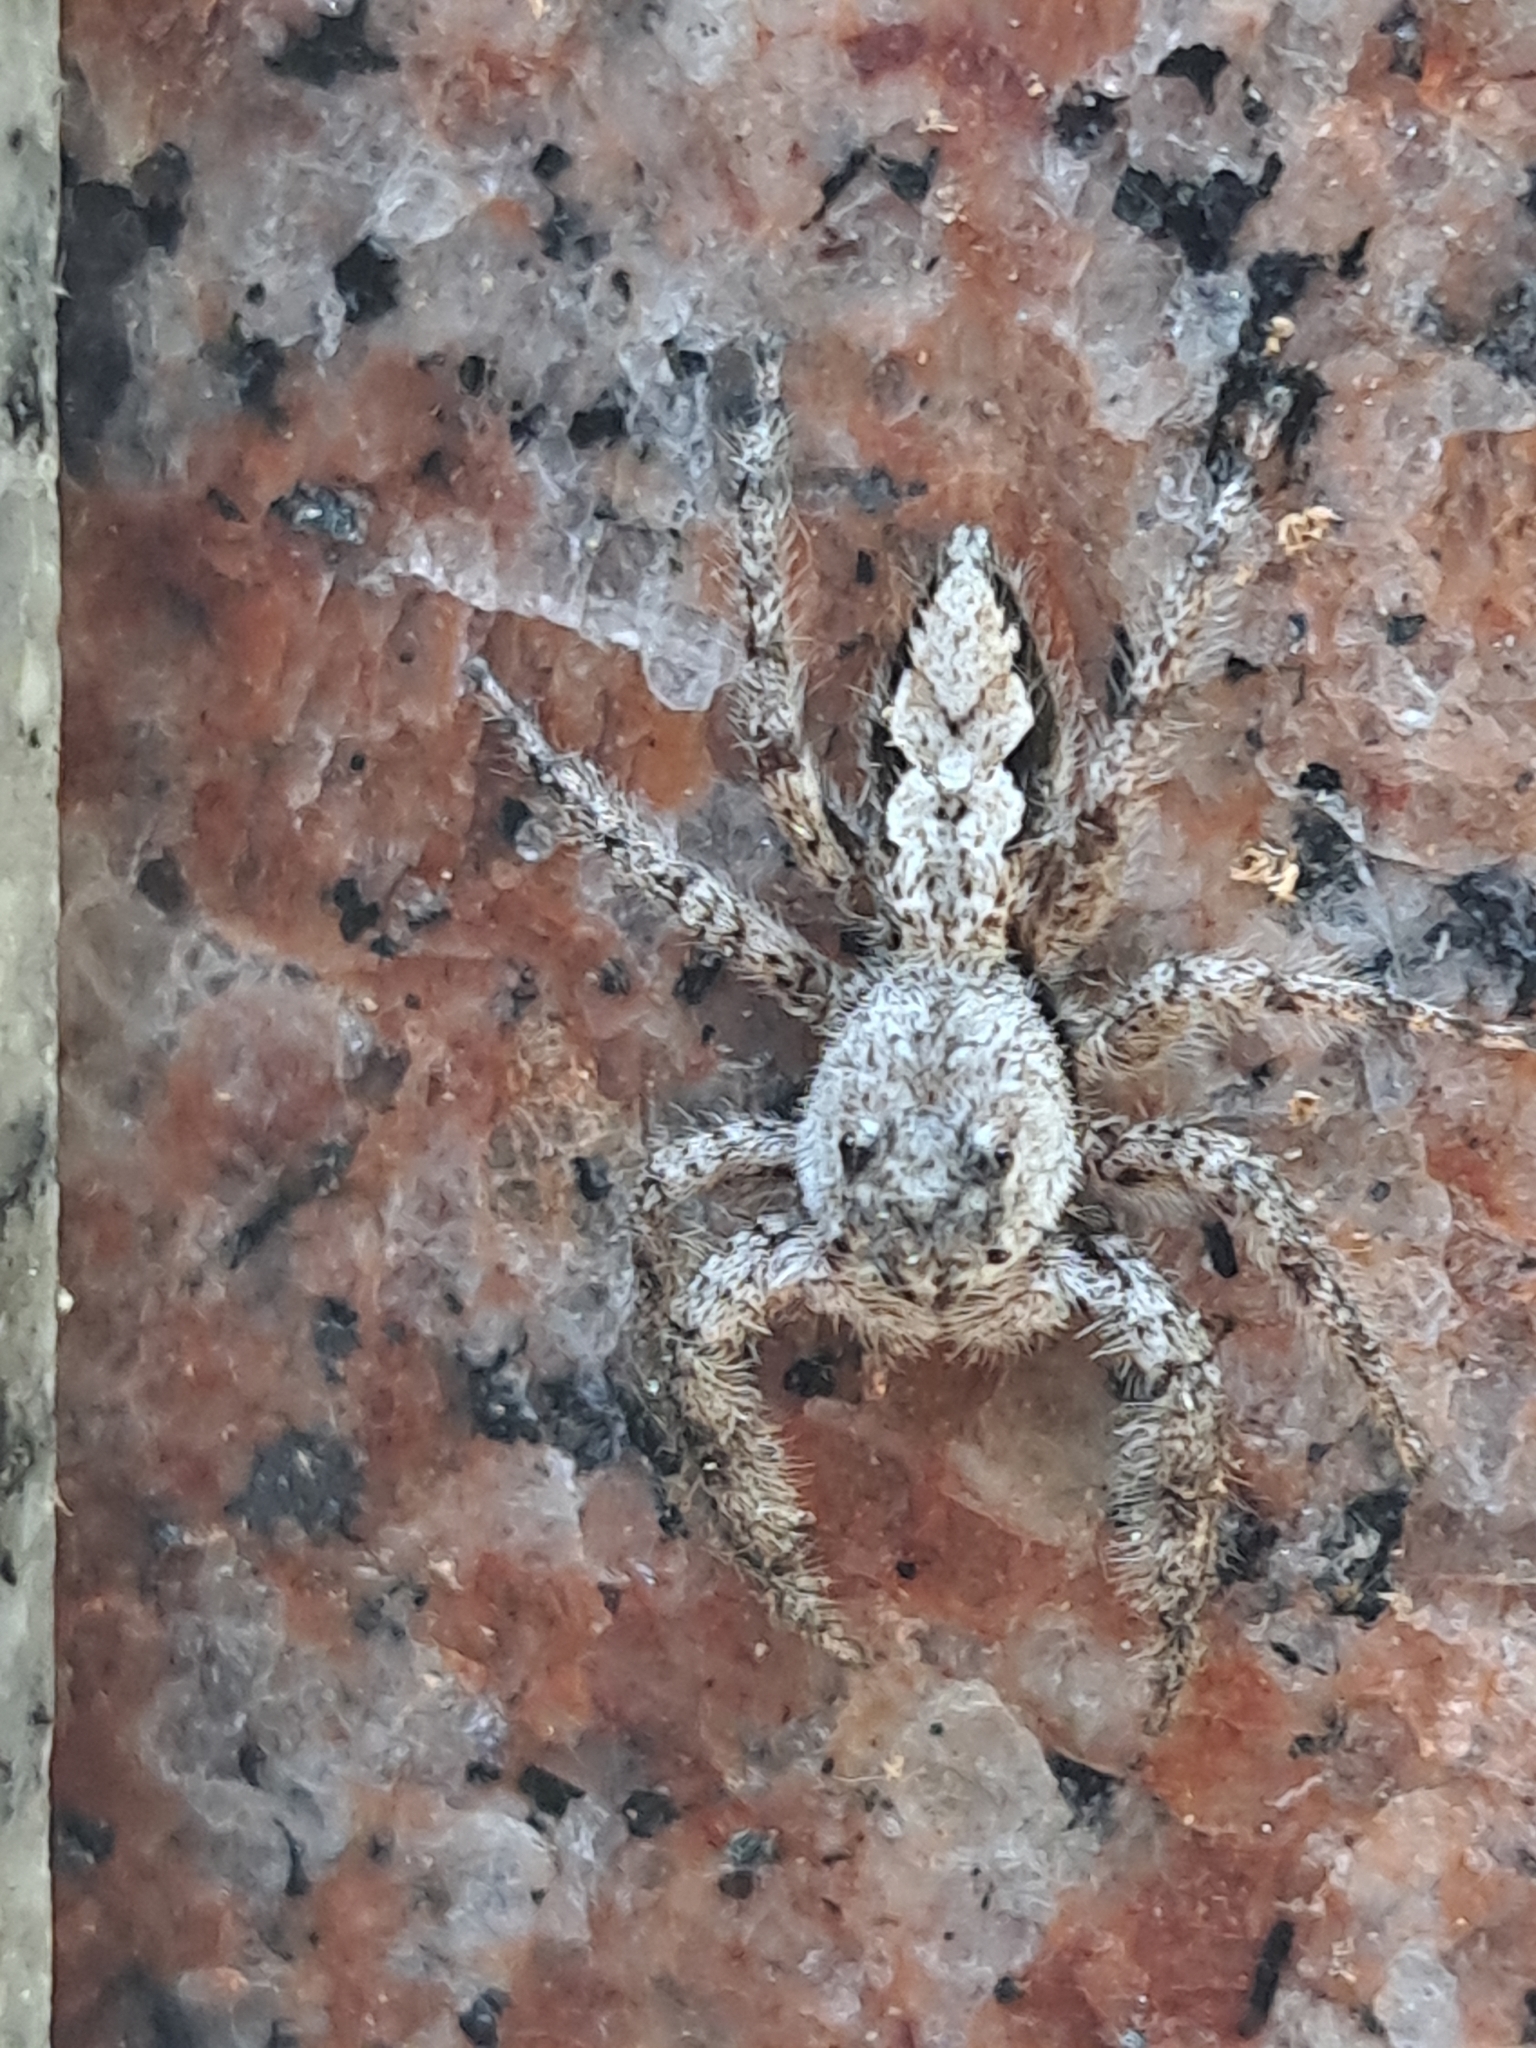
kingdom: Animalia
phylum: Arthropoda
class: Arachnida
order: Araneae
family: Salticidae
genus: Platycryptus
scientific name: Platycryptus undatus
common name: Tan jumping spider
